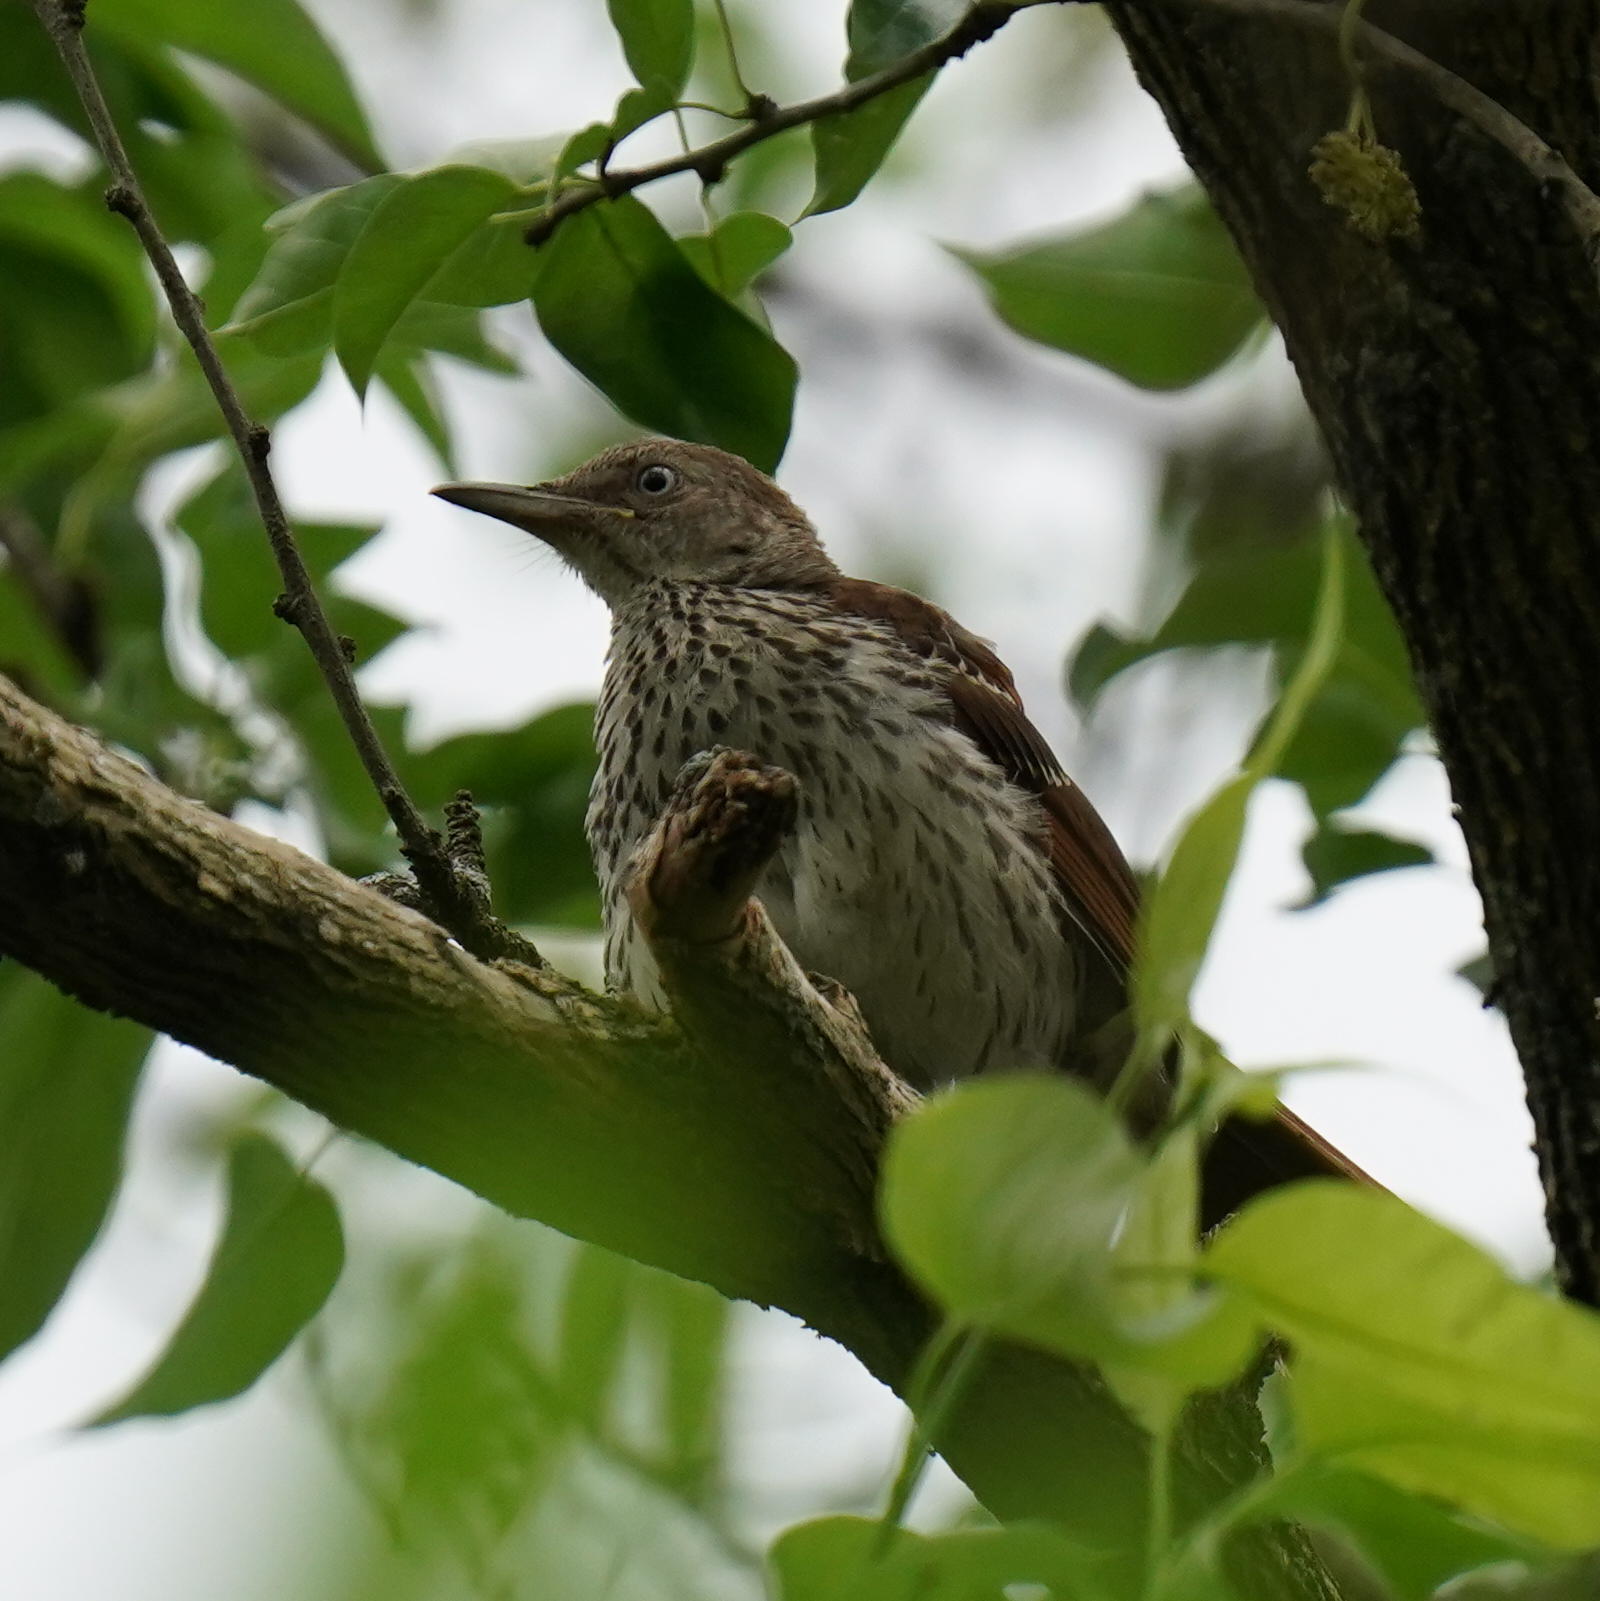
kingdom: Animalia
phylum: Chordata
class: Aves
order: Passeriformes
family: Mimidae
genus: Toxostoma
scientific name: Toxostoma rufum
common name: Brown thrasher
